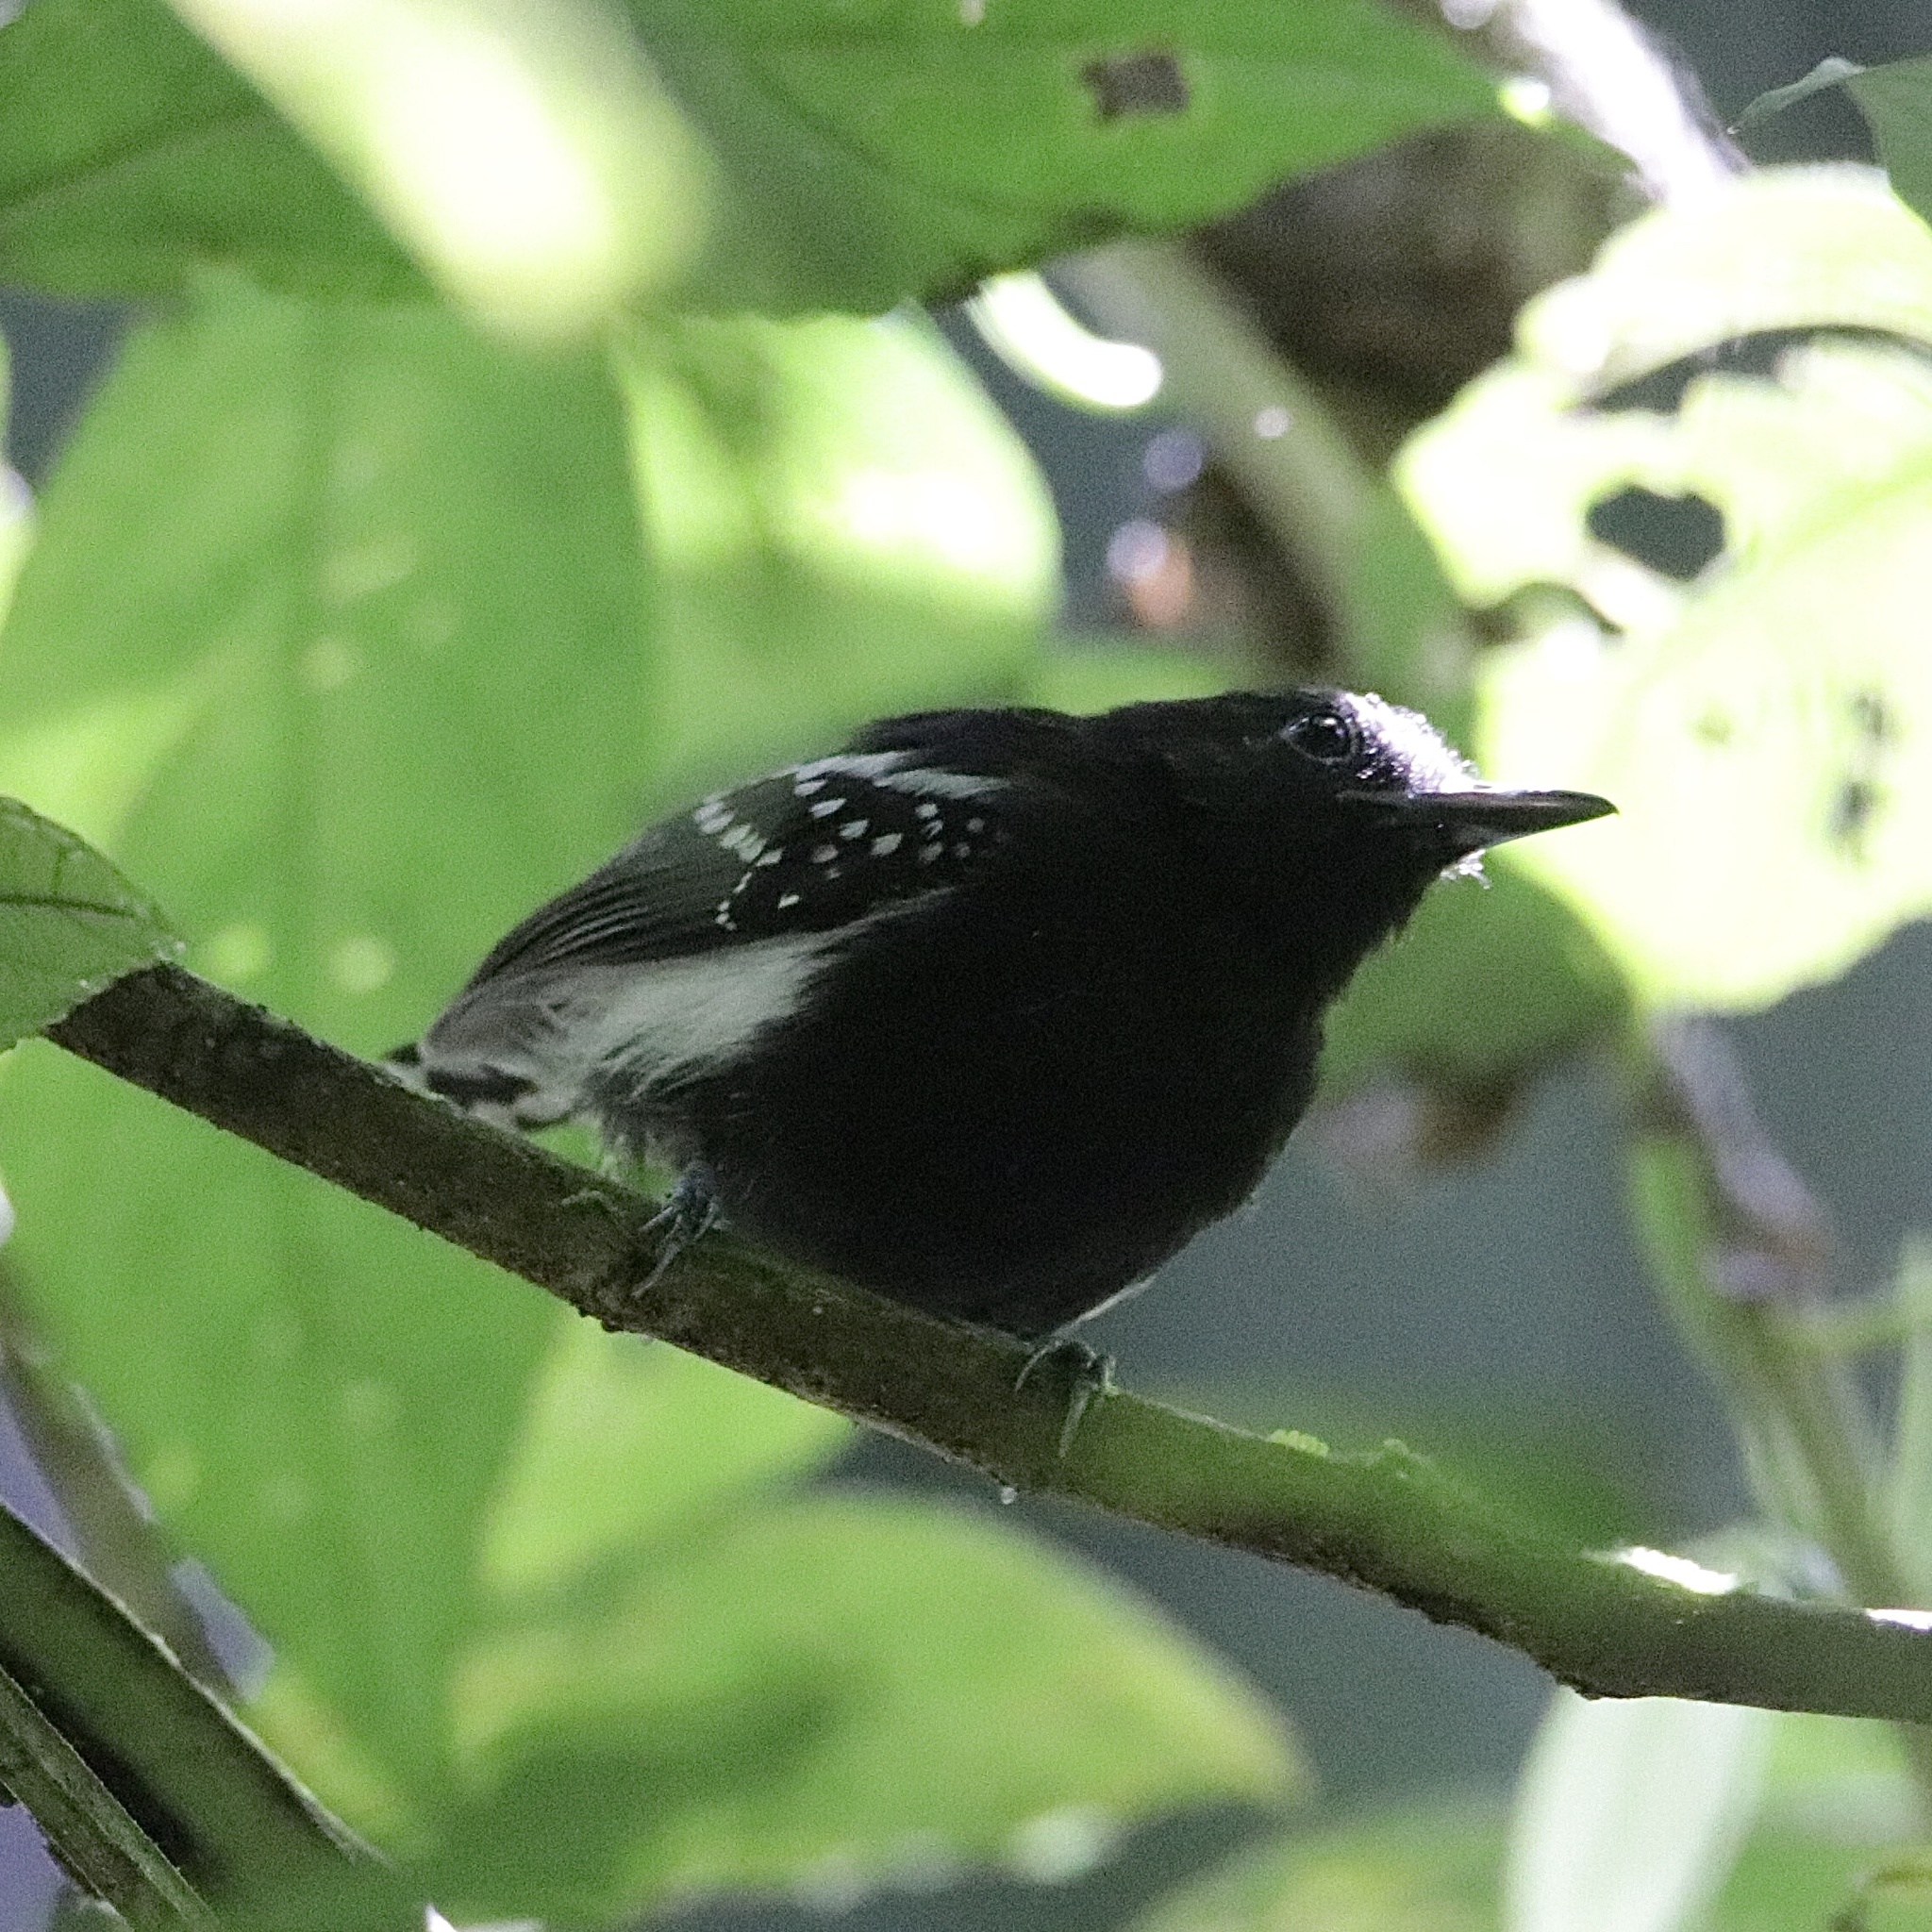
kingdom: Animalia
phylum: Chordata
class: Aves
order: Passeriformes
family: Thamnophilidae
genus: Myrmotherula
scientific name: Myrmotherula axillaris
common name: White-flanked antwren
